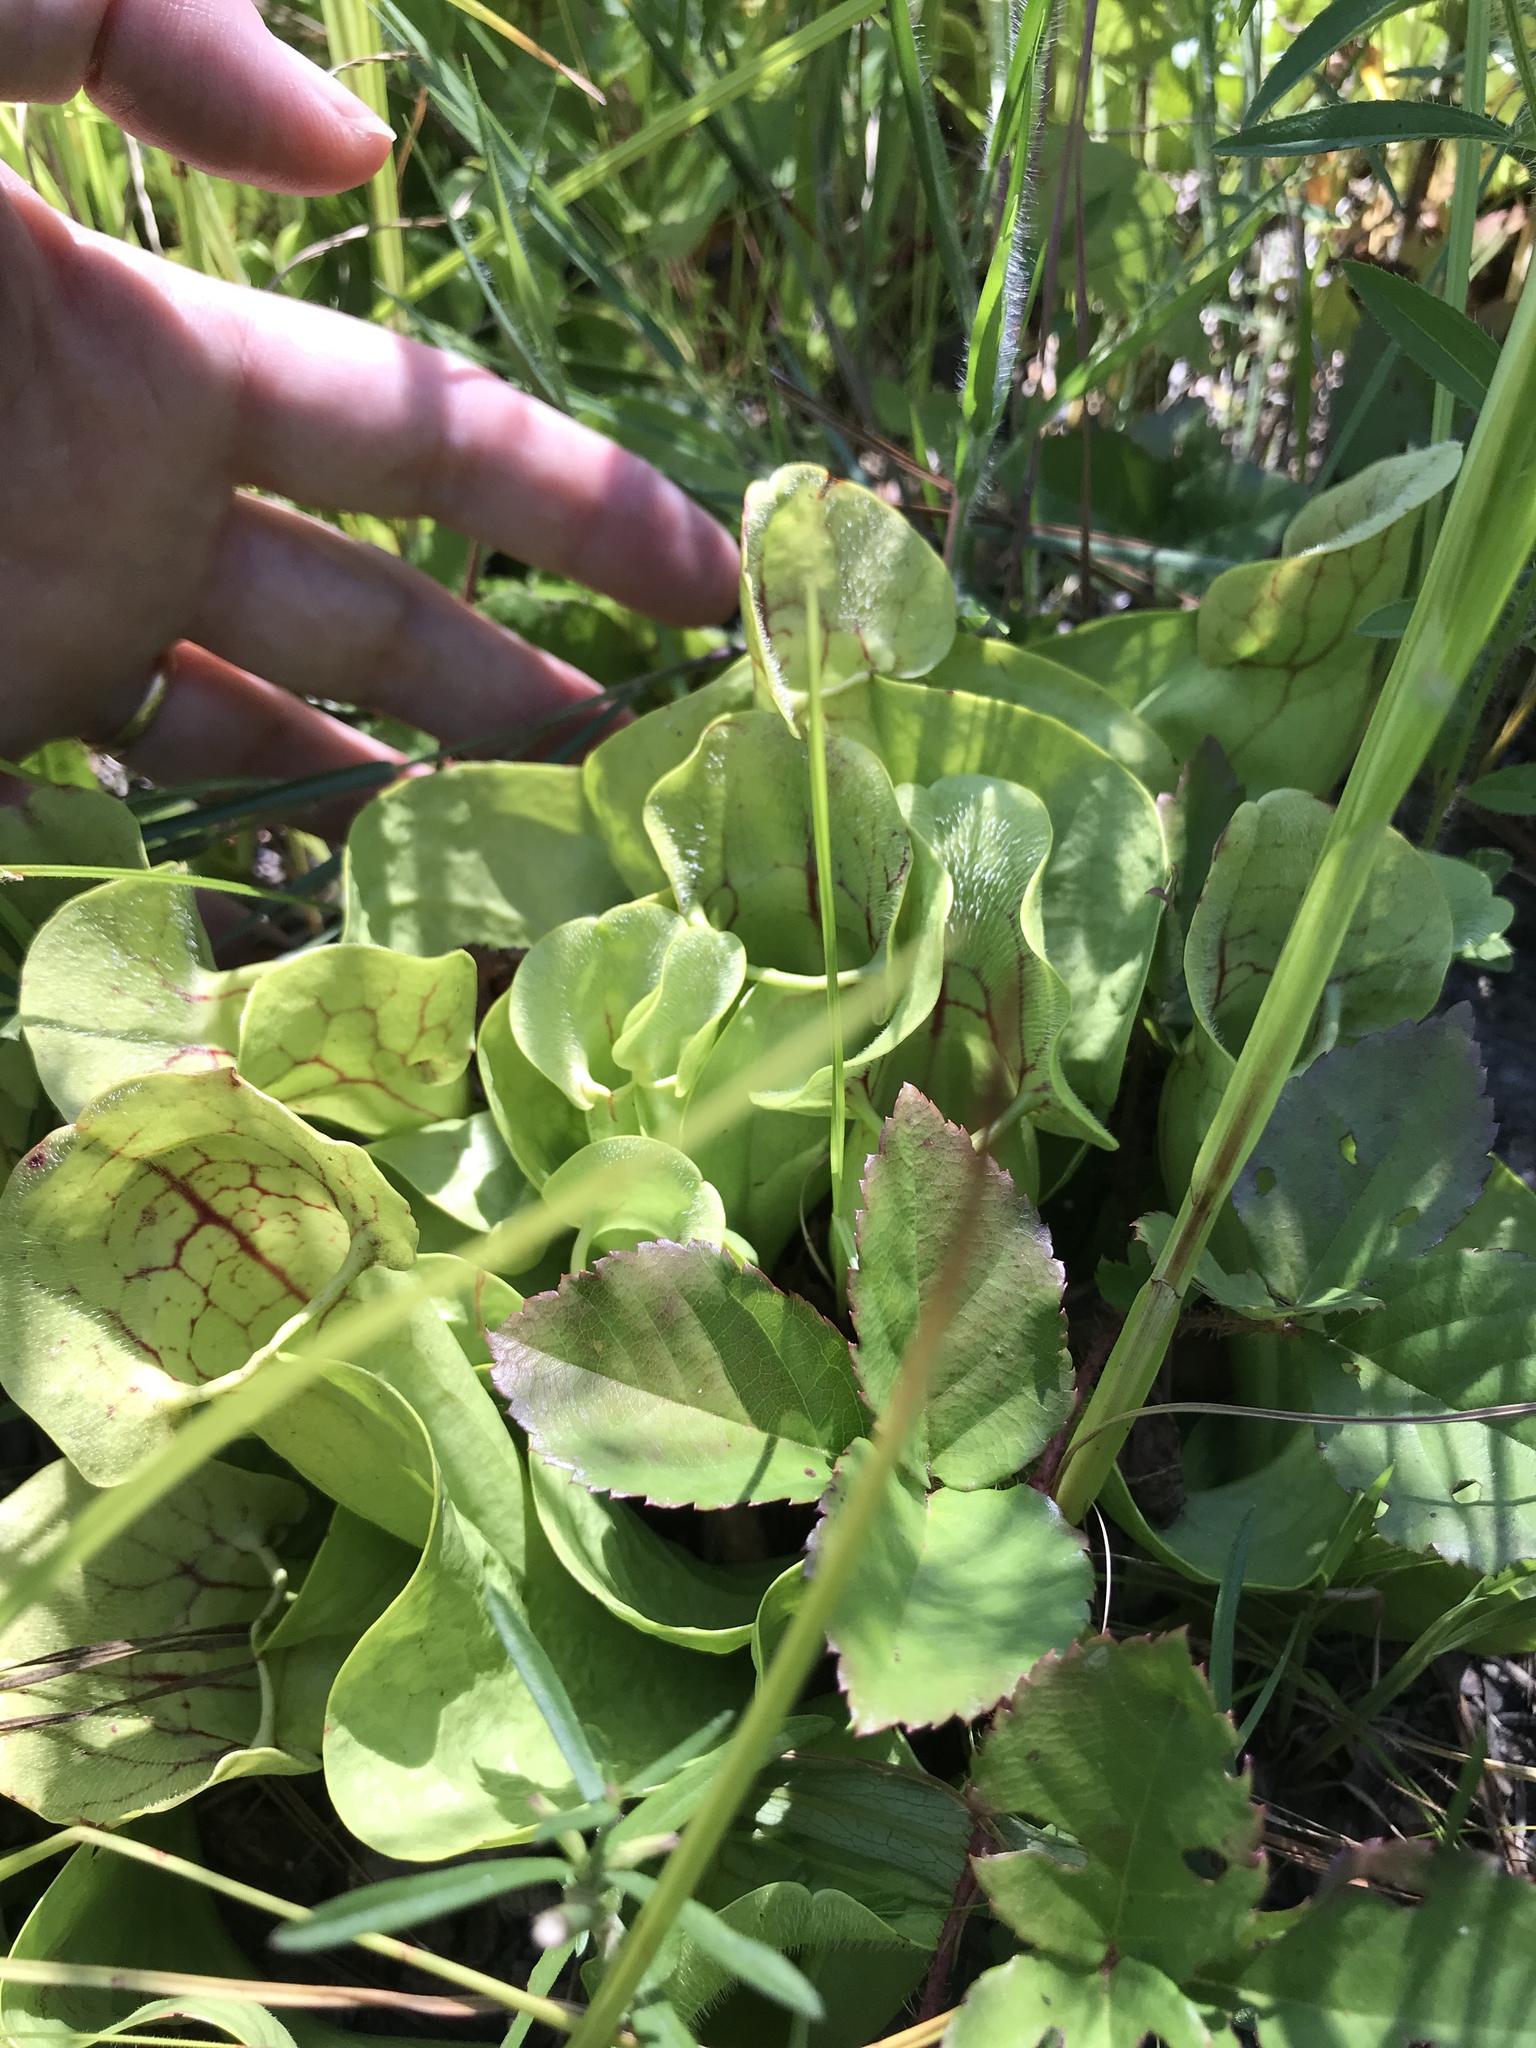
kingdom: Plantae
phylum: Tracheophyta
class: Magnoliopsida
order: Ericales
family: Sarraceniaceae
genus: Sarracenia
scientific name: Sarracenia purpurea
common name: Pitcherplant
